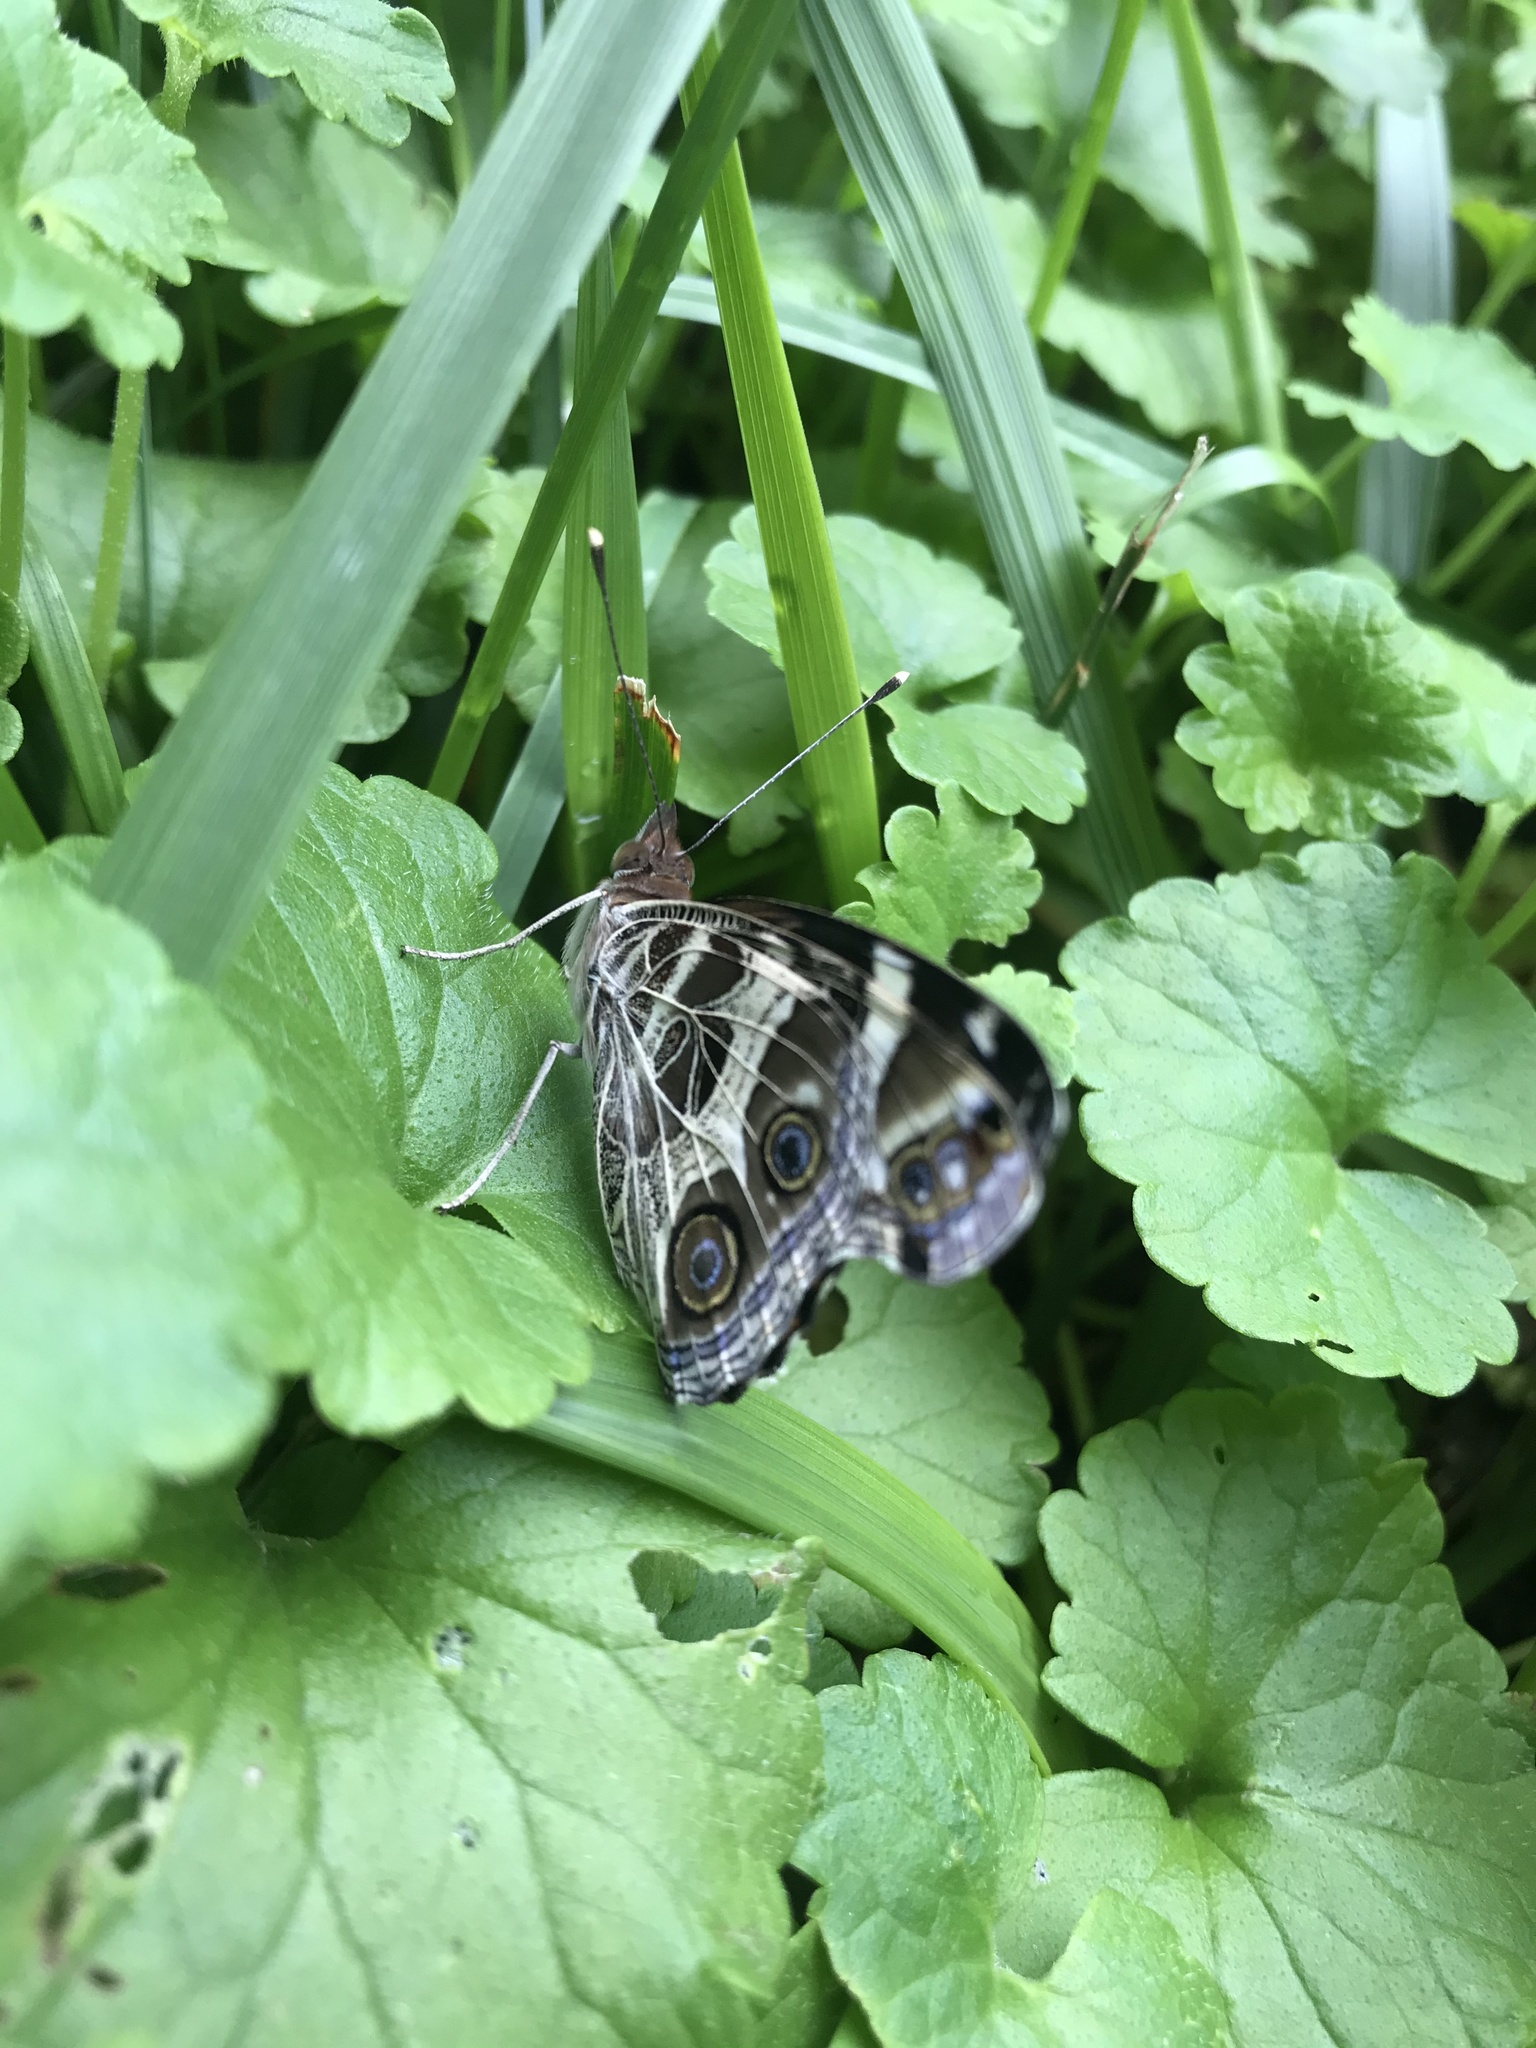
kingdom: Animalia
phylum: Arthropoda
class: Insecta
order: Lepidoptera
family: Nymphalidae
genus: Vanessa
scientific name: Vanessa virginiensis
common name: American lady
